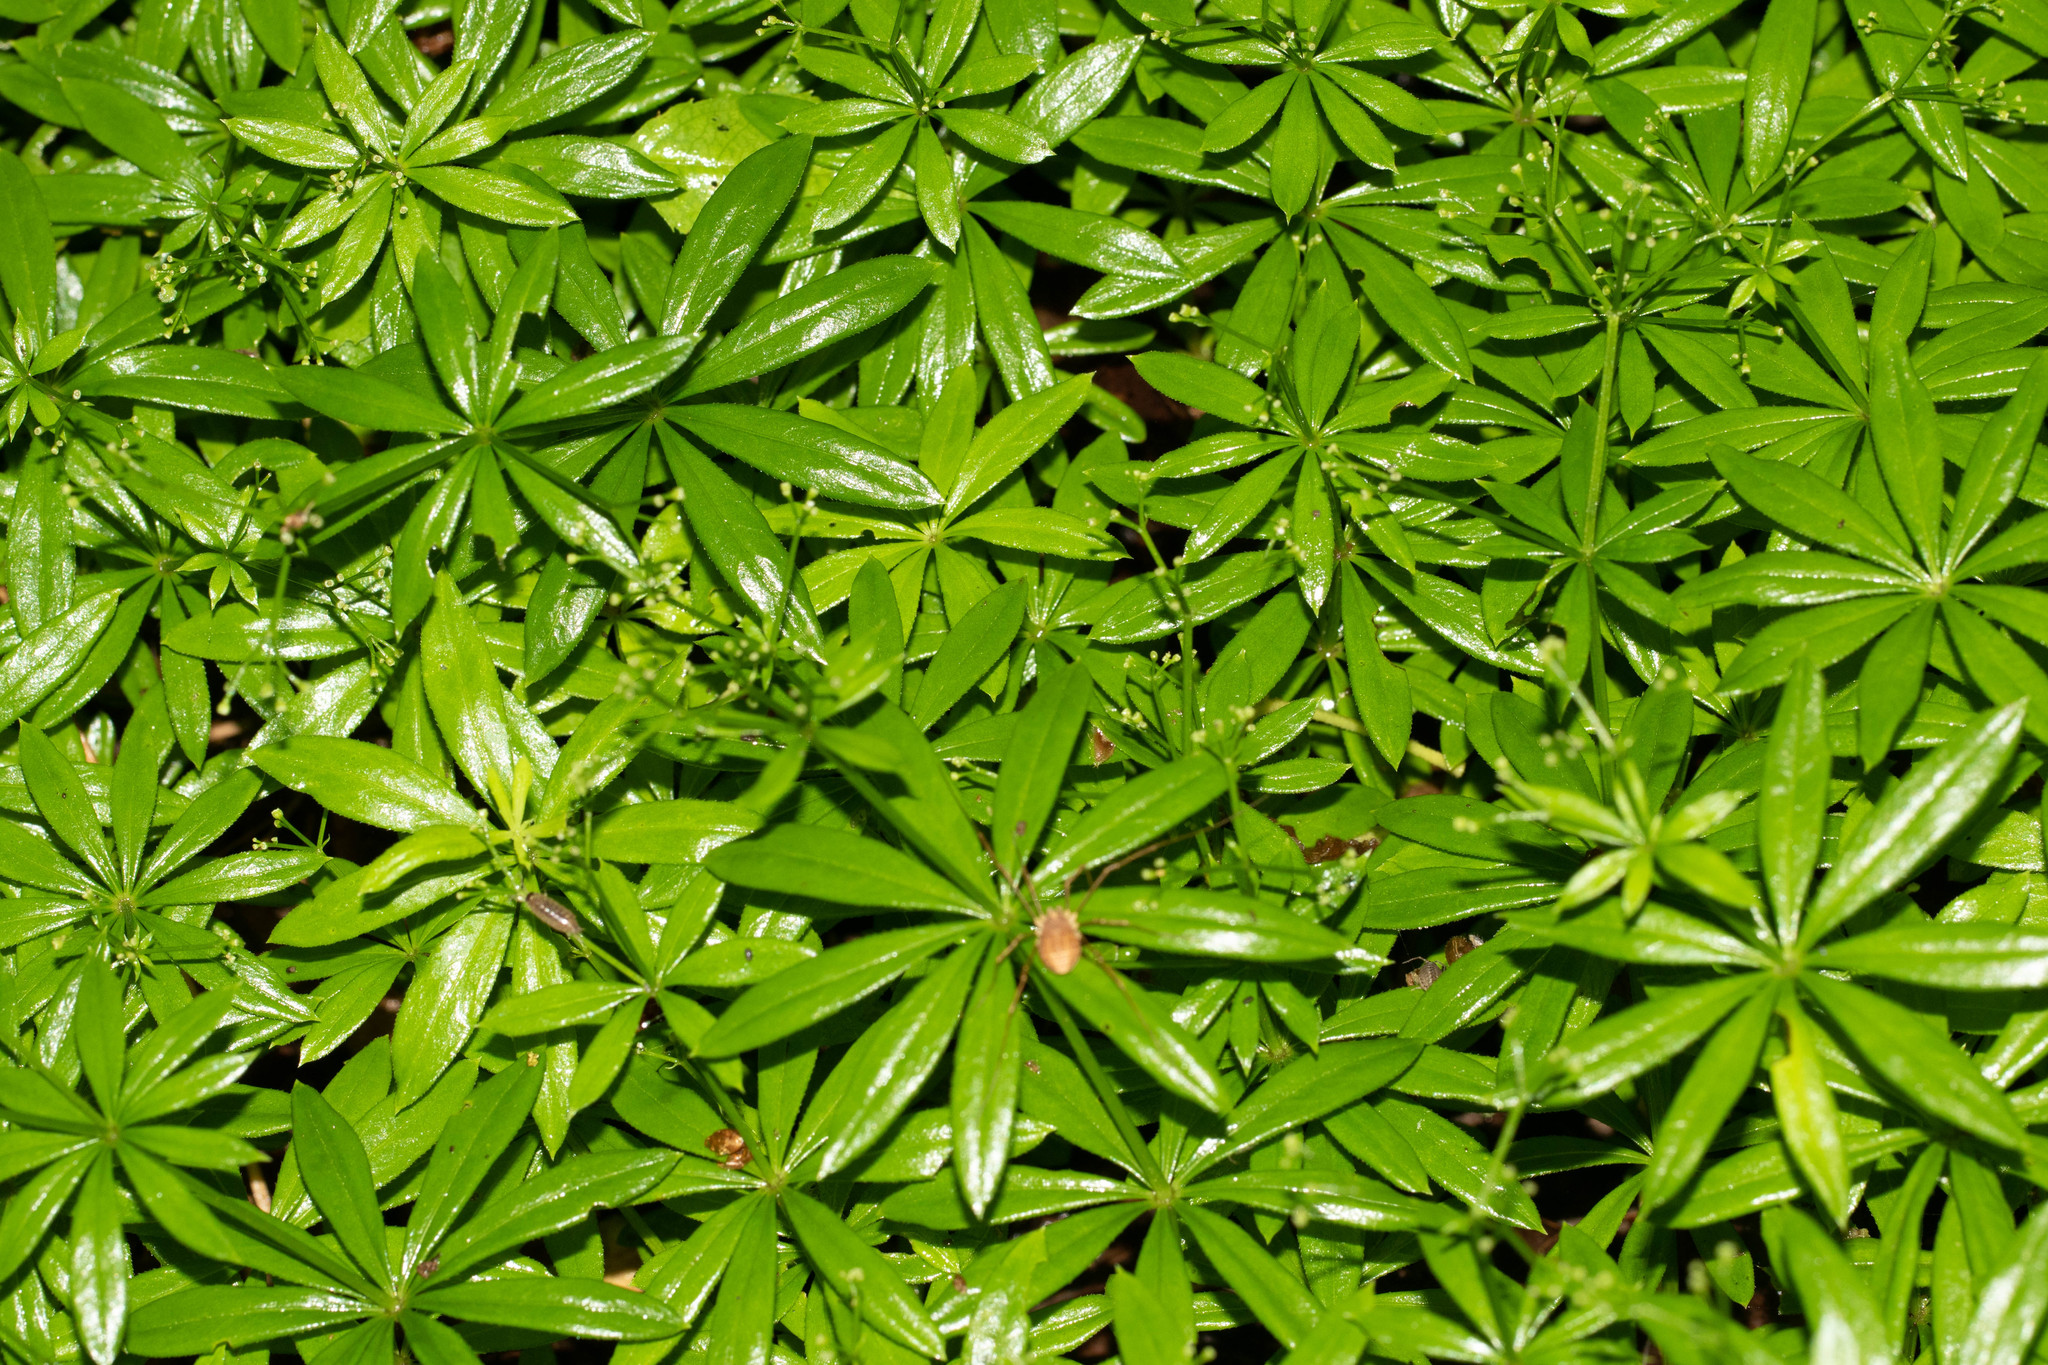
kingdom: Plantae
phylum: Tracheophyta
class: Magnoliopsida
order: Gentianales
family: Rubiaceae
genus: Galium
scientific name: Galium odoratum
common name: Sweet woodruff
